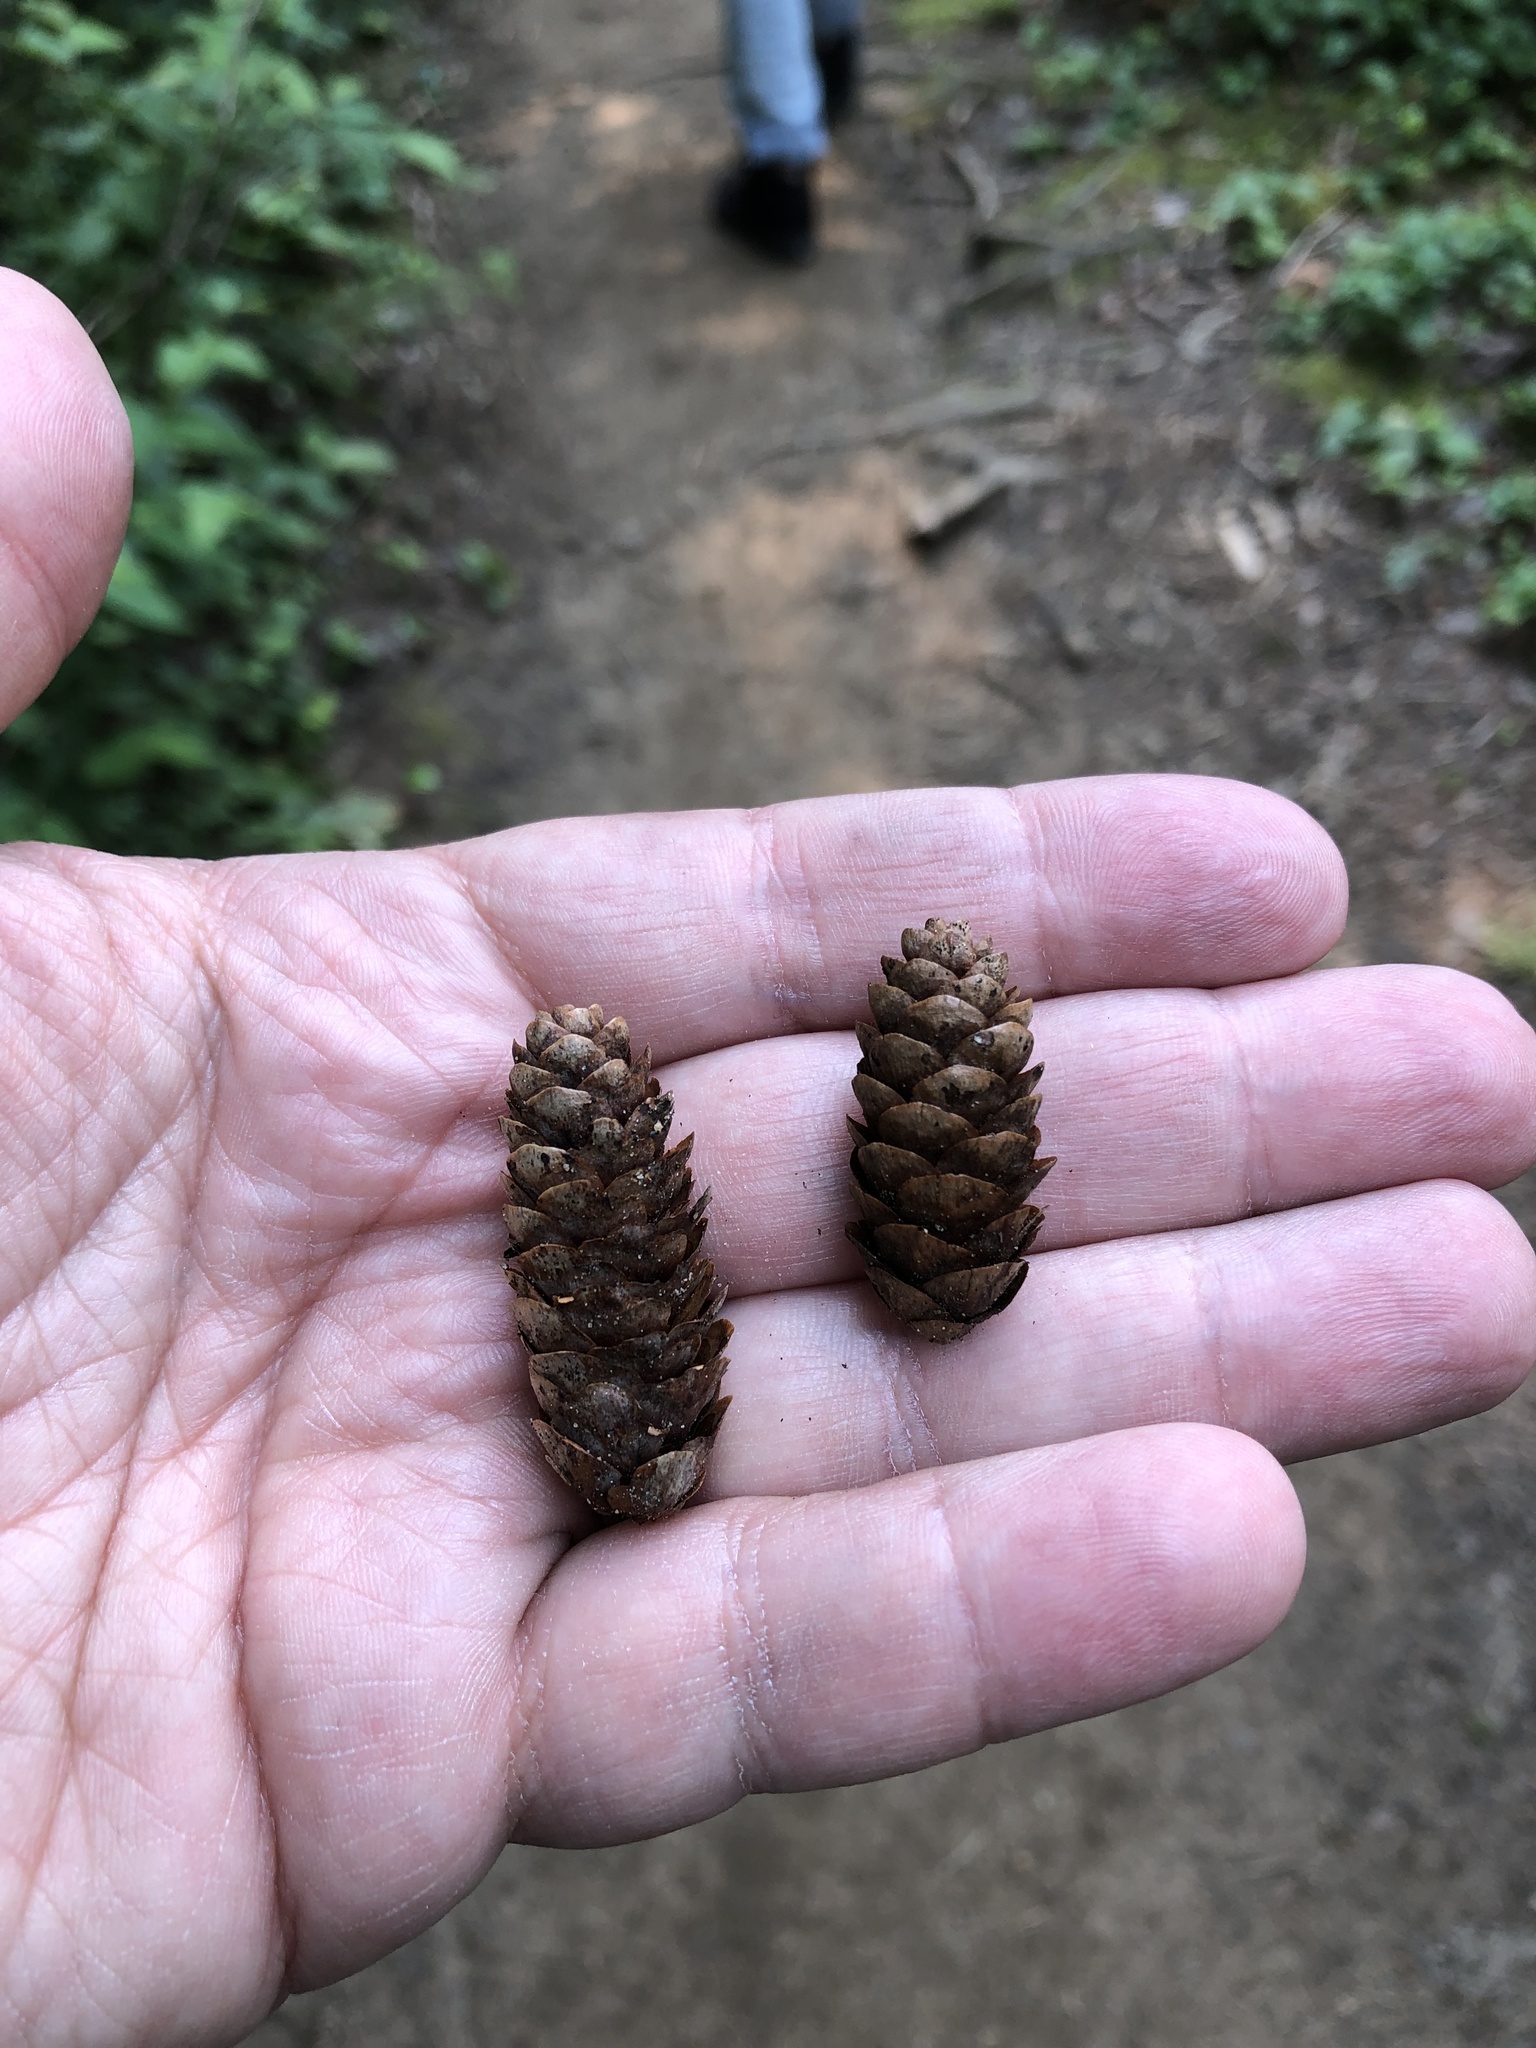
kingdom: Plantae
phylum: Tracheophyta
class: Pinopsida
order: Pinales
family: Pinaceae
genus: Picea
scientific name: Picea glauca
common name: White spruce
